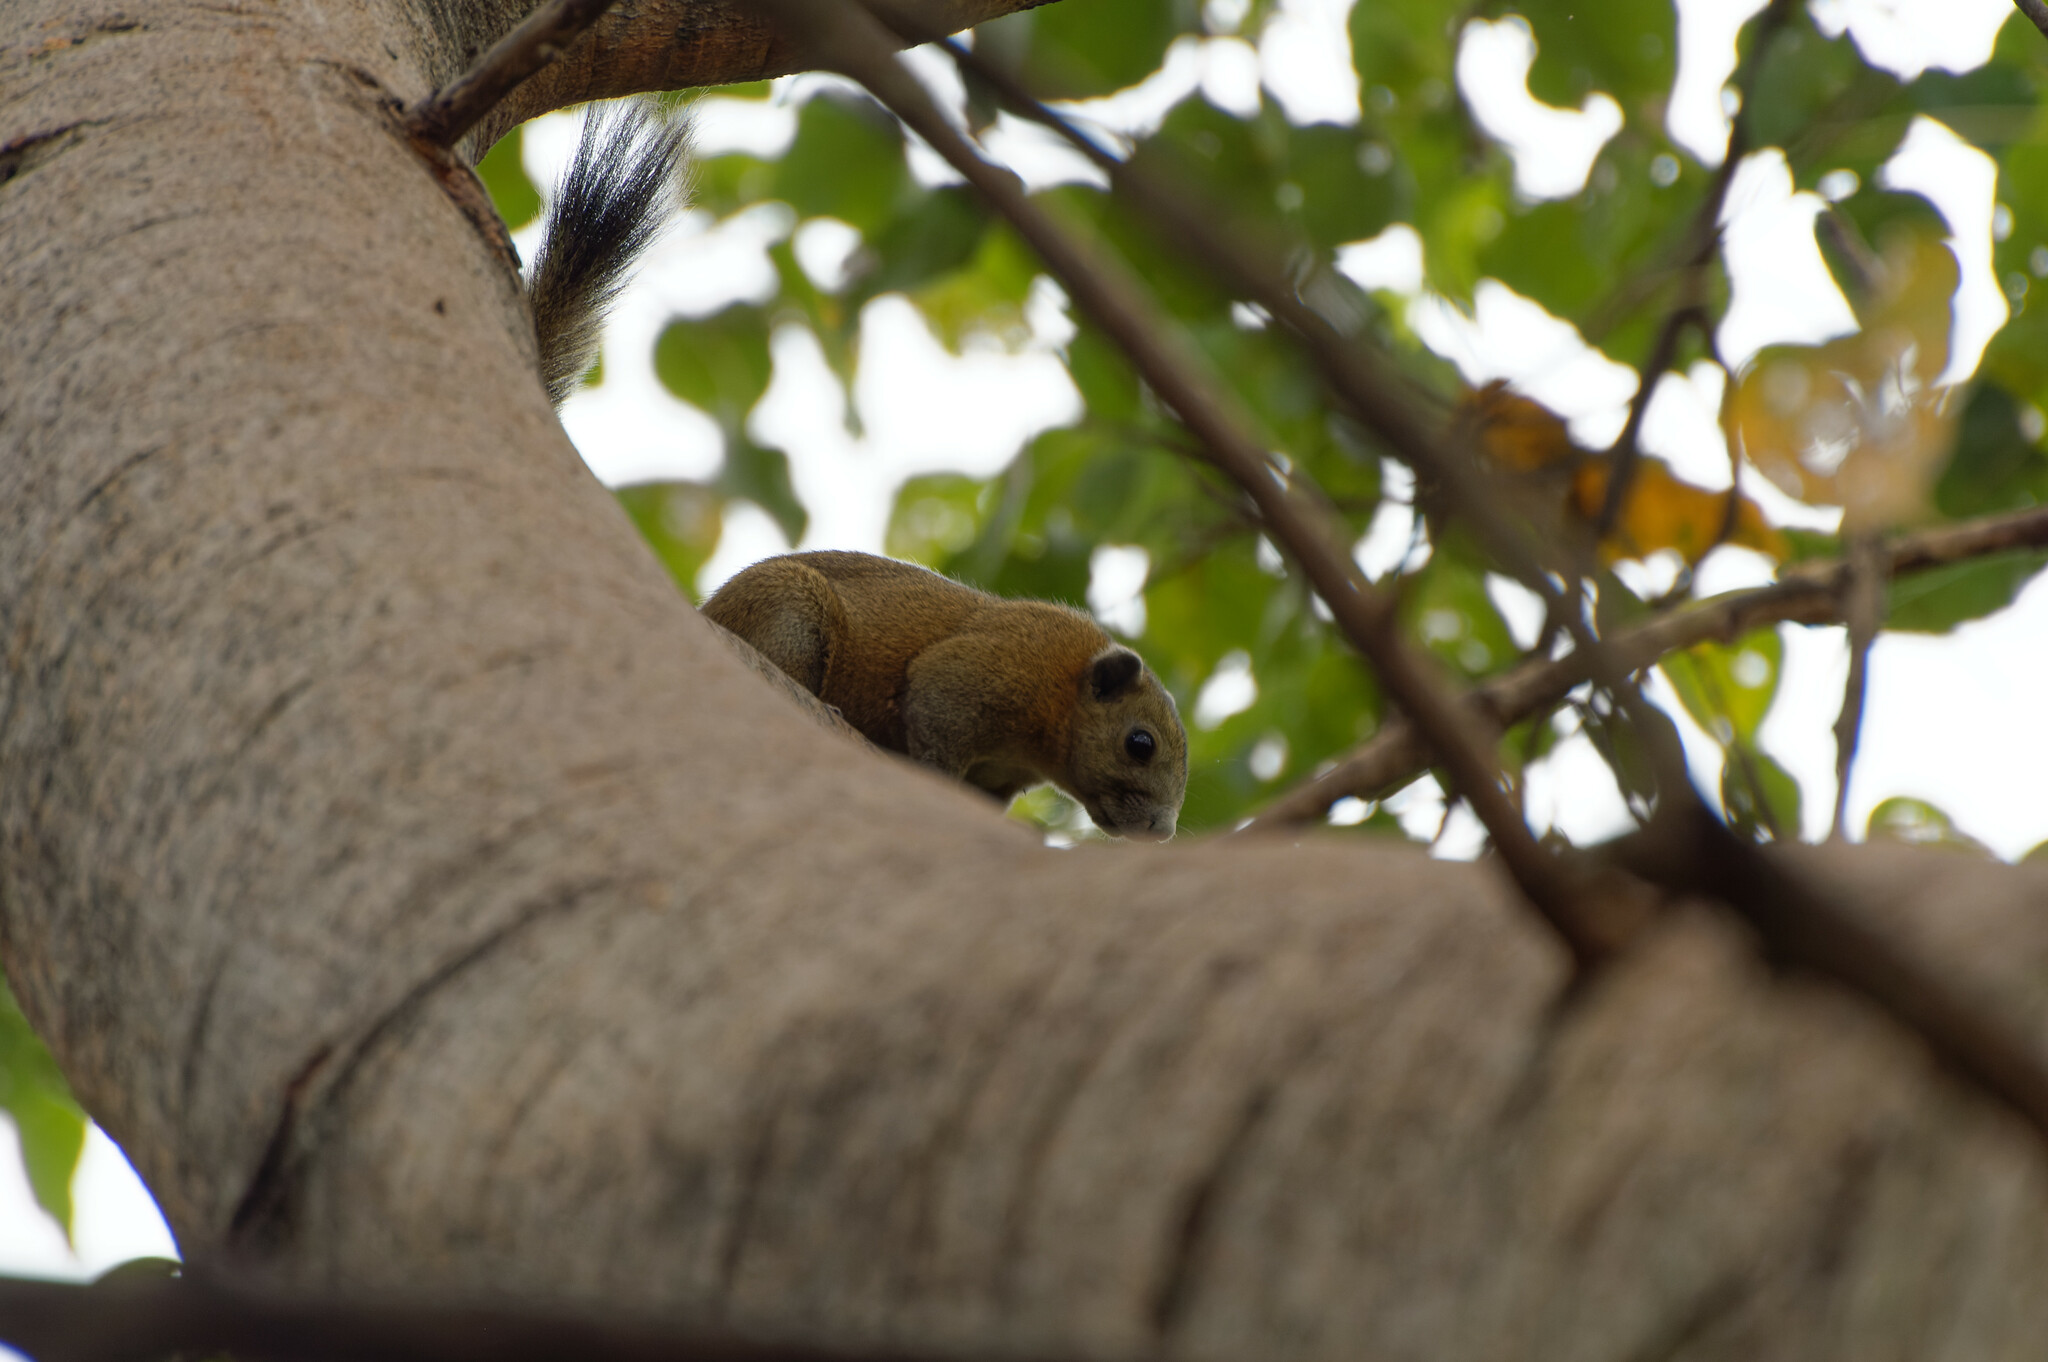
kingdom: Animalia
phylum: Chordata
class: Mammalia
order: Rodentia
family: Sciuridae
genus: Callosciurus
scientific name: Callosciurus caniceps
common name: Gray-bellied squirrel
